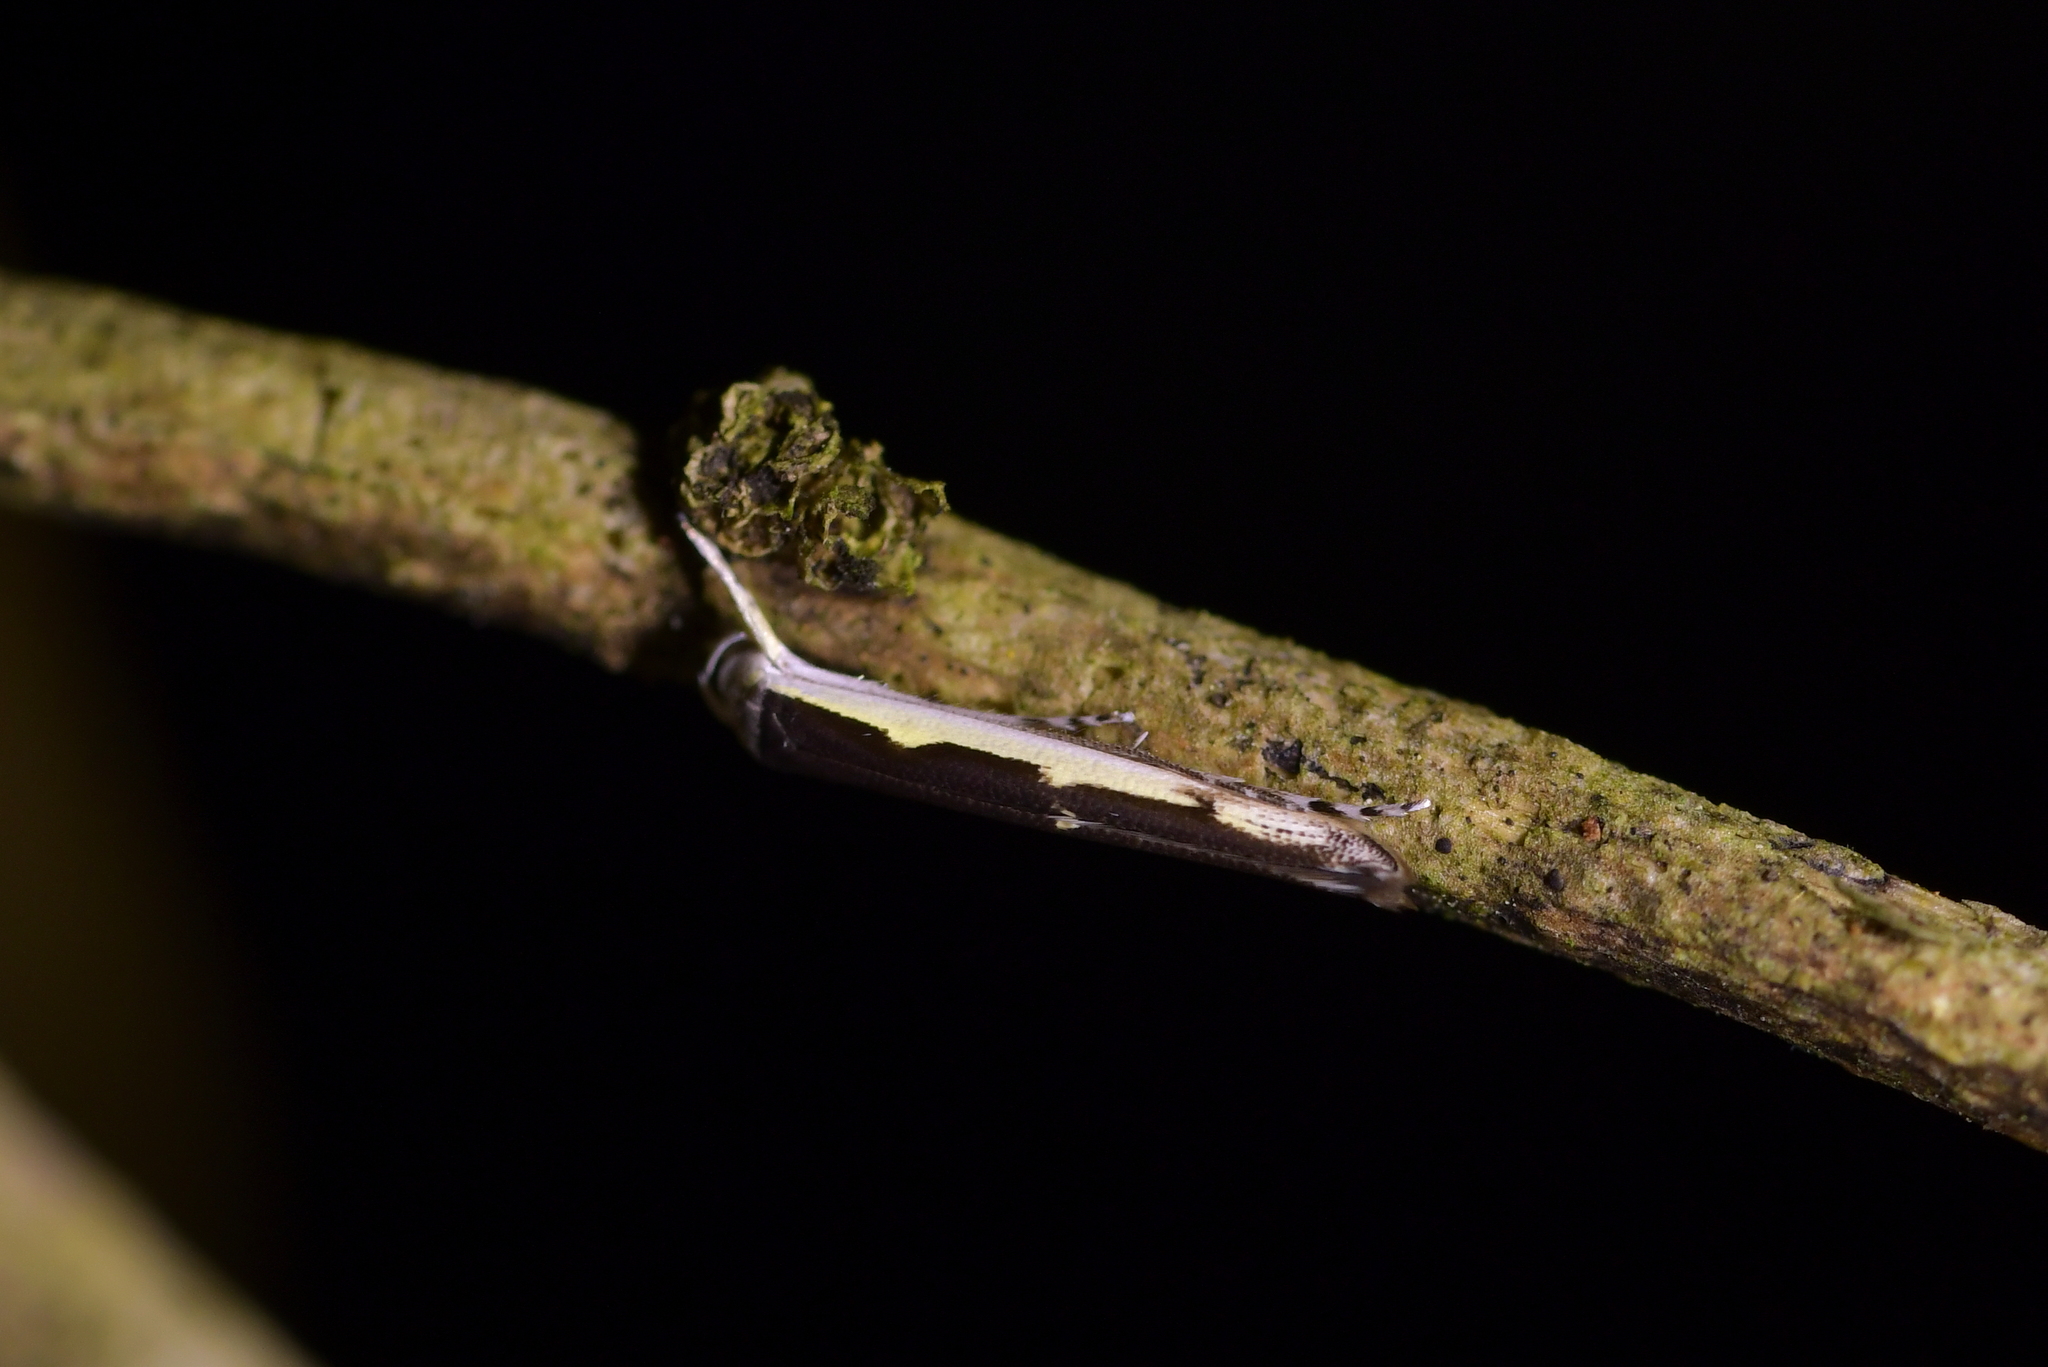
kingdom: Animalia
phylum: Arthropoda
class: Insecta
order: Lepidoptera
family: Roeslerstammiidae
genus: Vanicela
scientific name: Vanicela disjunctella
